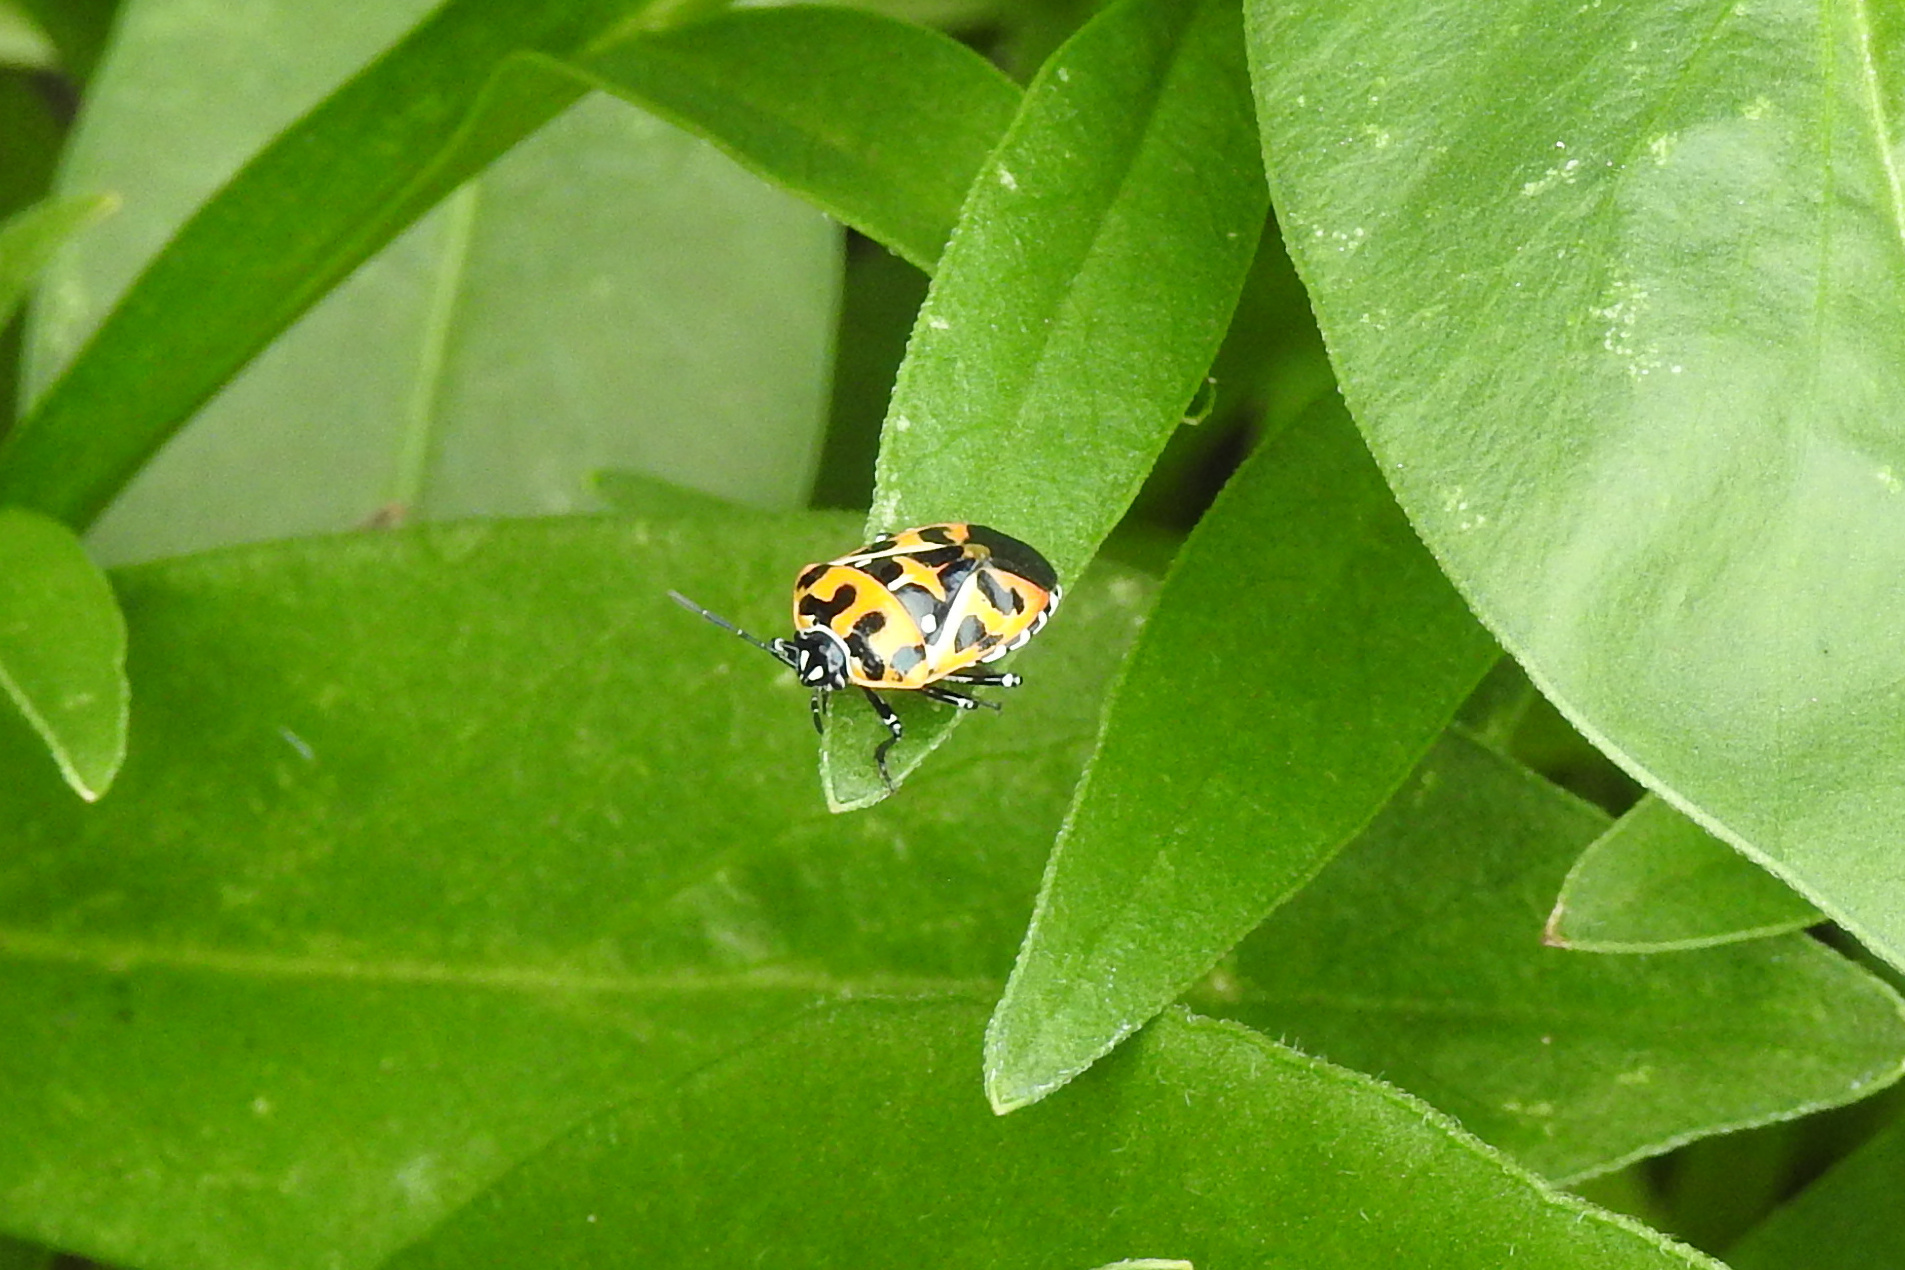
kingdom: Animalia
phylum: Arthropoda
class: Insecta
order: Hemiptera
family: Pentatomidae
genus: Murgantia
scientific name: Murgantia histrionica
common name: Harlequin bug
